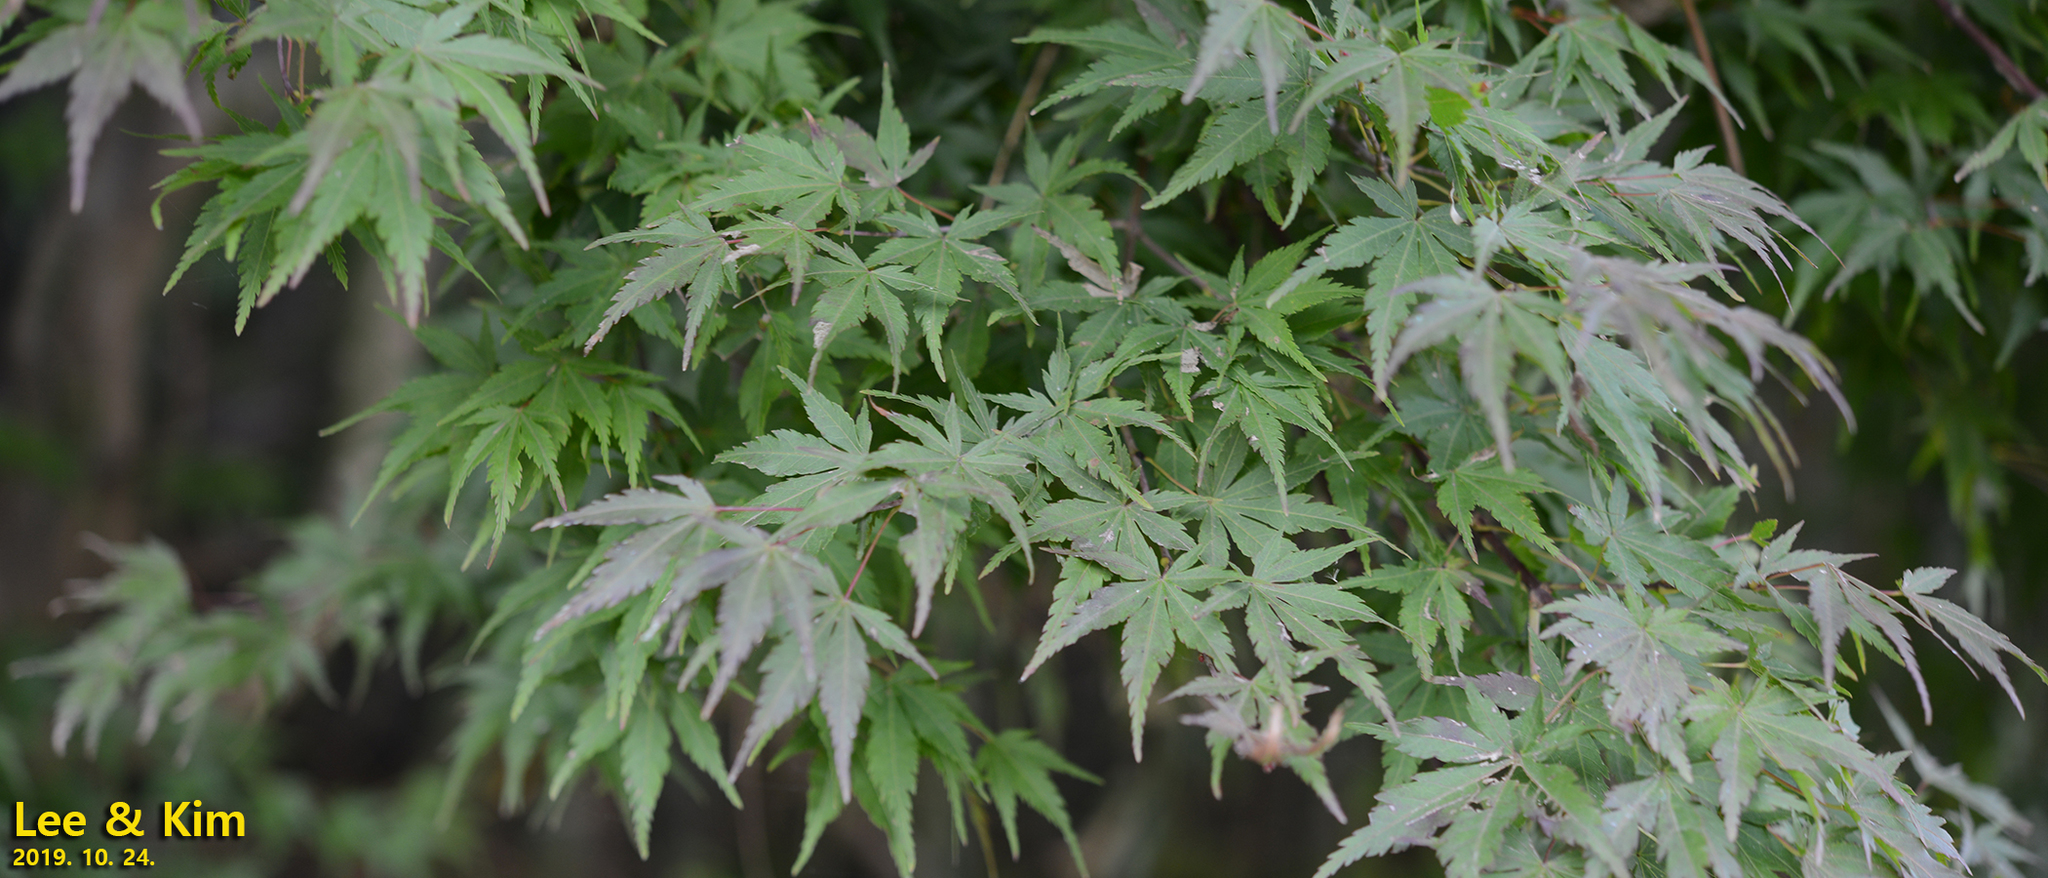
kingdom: Plantae
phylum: Tracheophyta
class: Magnoliopsida
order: Sapindales
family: Sapindaceae
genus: Acer
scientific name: Acer palmatum
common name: Japanese maple
